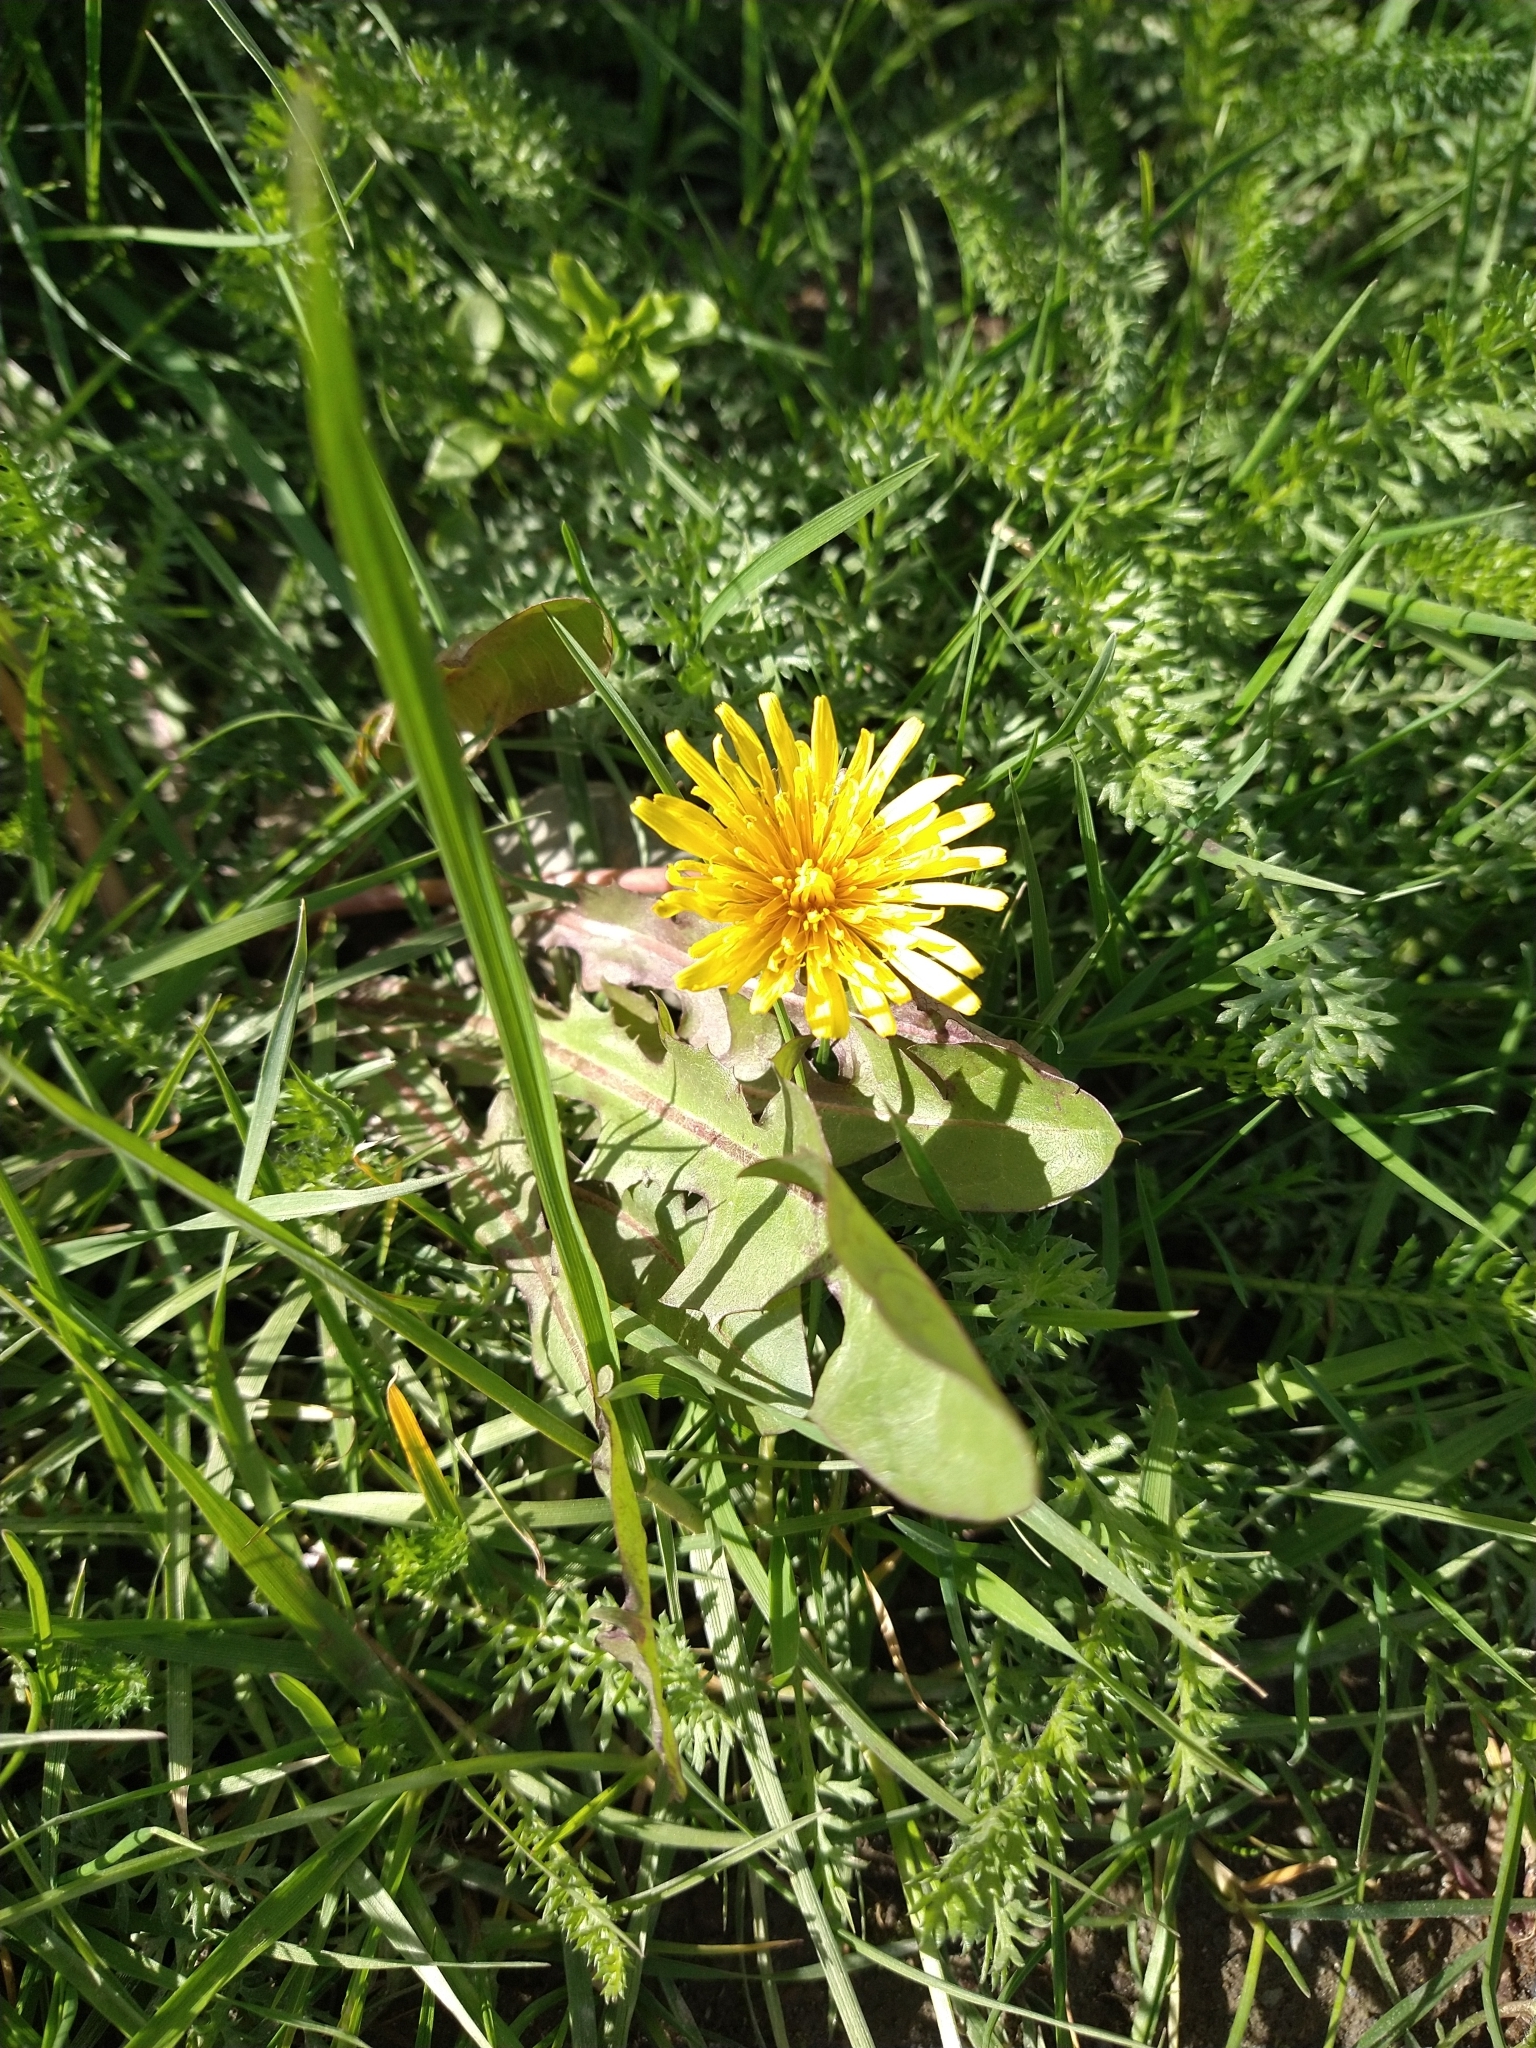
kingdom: Plantae
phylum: Tracheophyta
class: Magnoliopsida
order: Asterales
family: Asteraceae
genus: Taraxacum
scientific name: Taraxacum officinale
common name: Common dandelion
